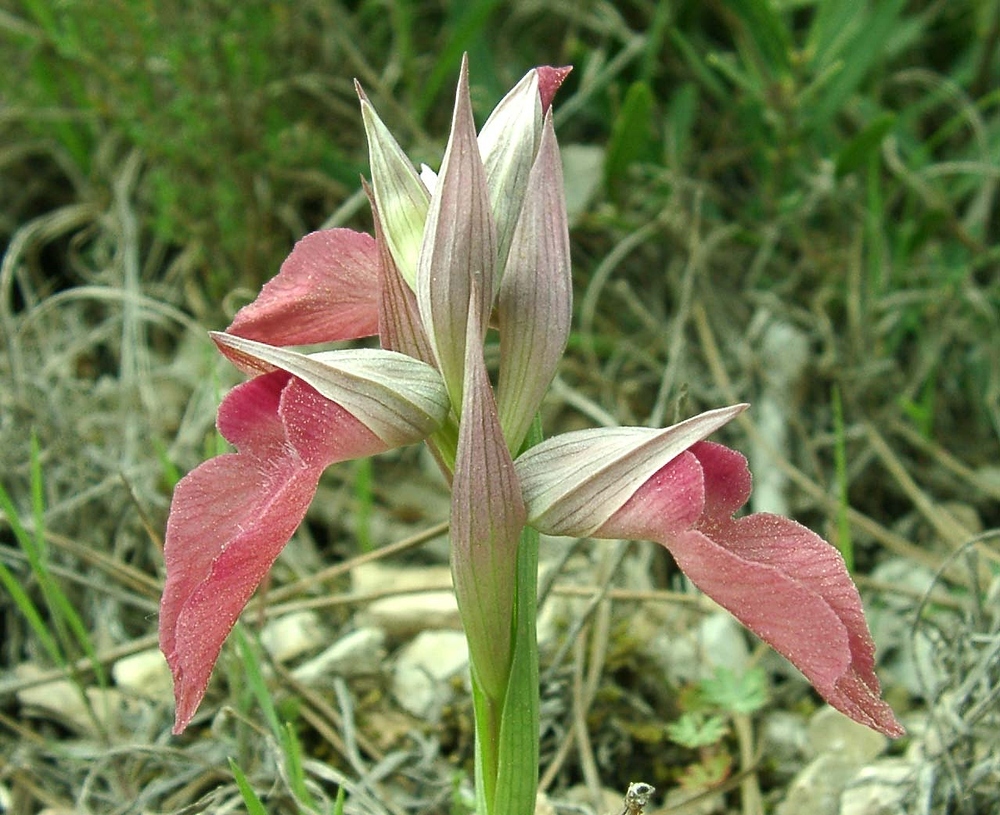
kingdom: Plantae
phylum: Tracheophyta
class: Liliopsida
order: Asparagales
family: Orchidaceae
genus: Serapias
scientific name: Serapias neglecta
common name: Neglected serapias
